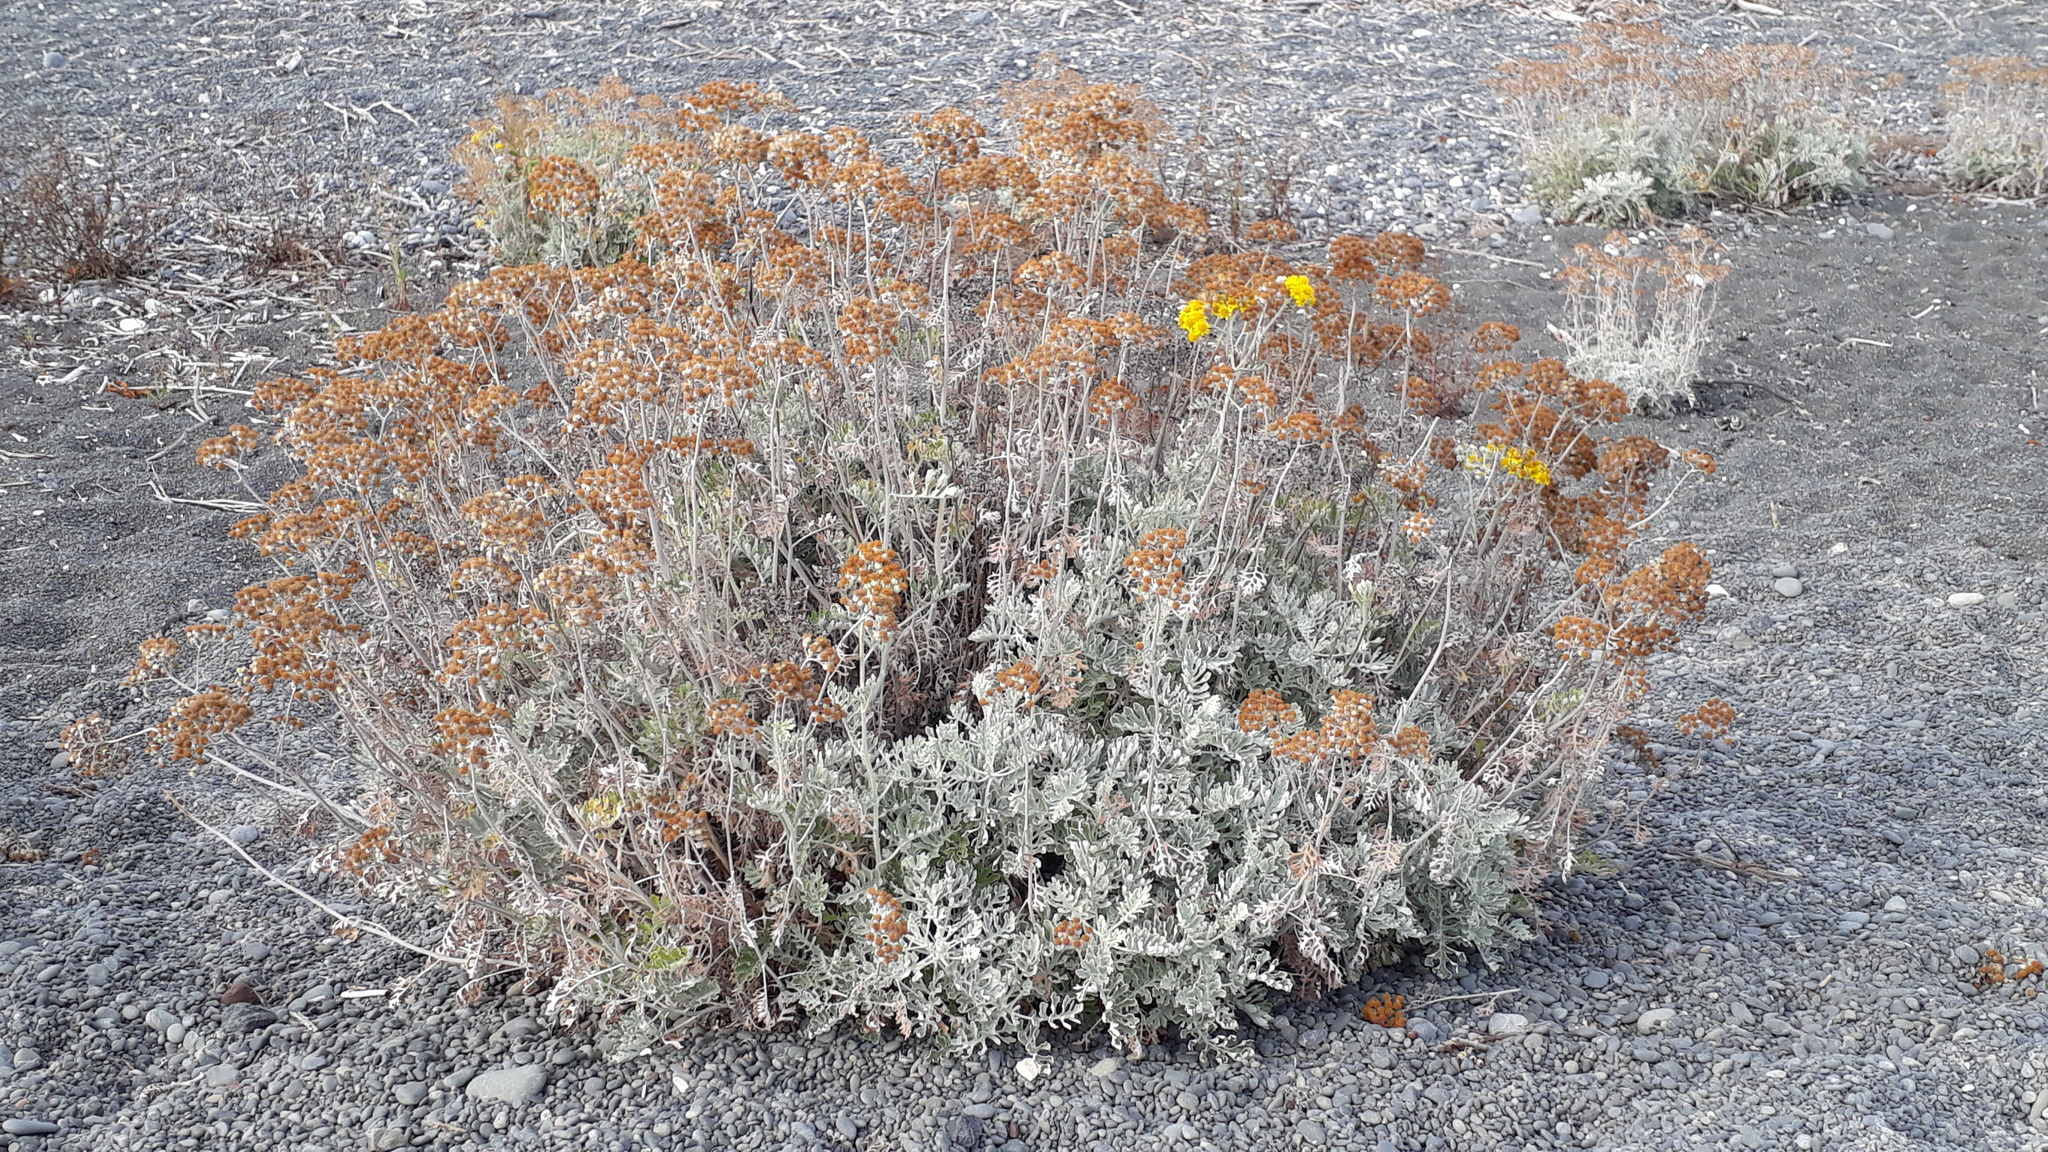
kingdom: Plantae
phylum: Tracheophyta
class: Magnoliopsida
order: Asterales
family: Asteraceae
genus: Jacobaea
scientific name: Jacobaea maritima
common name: Silver ragwort
